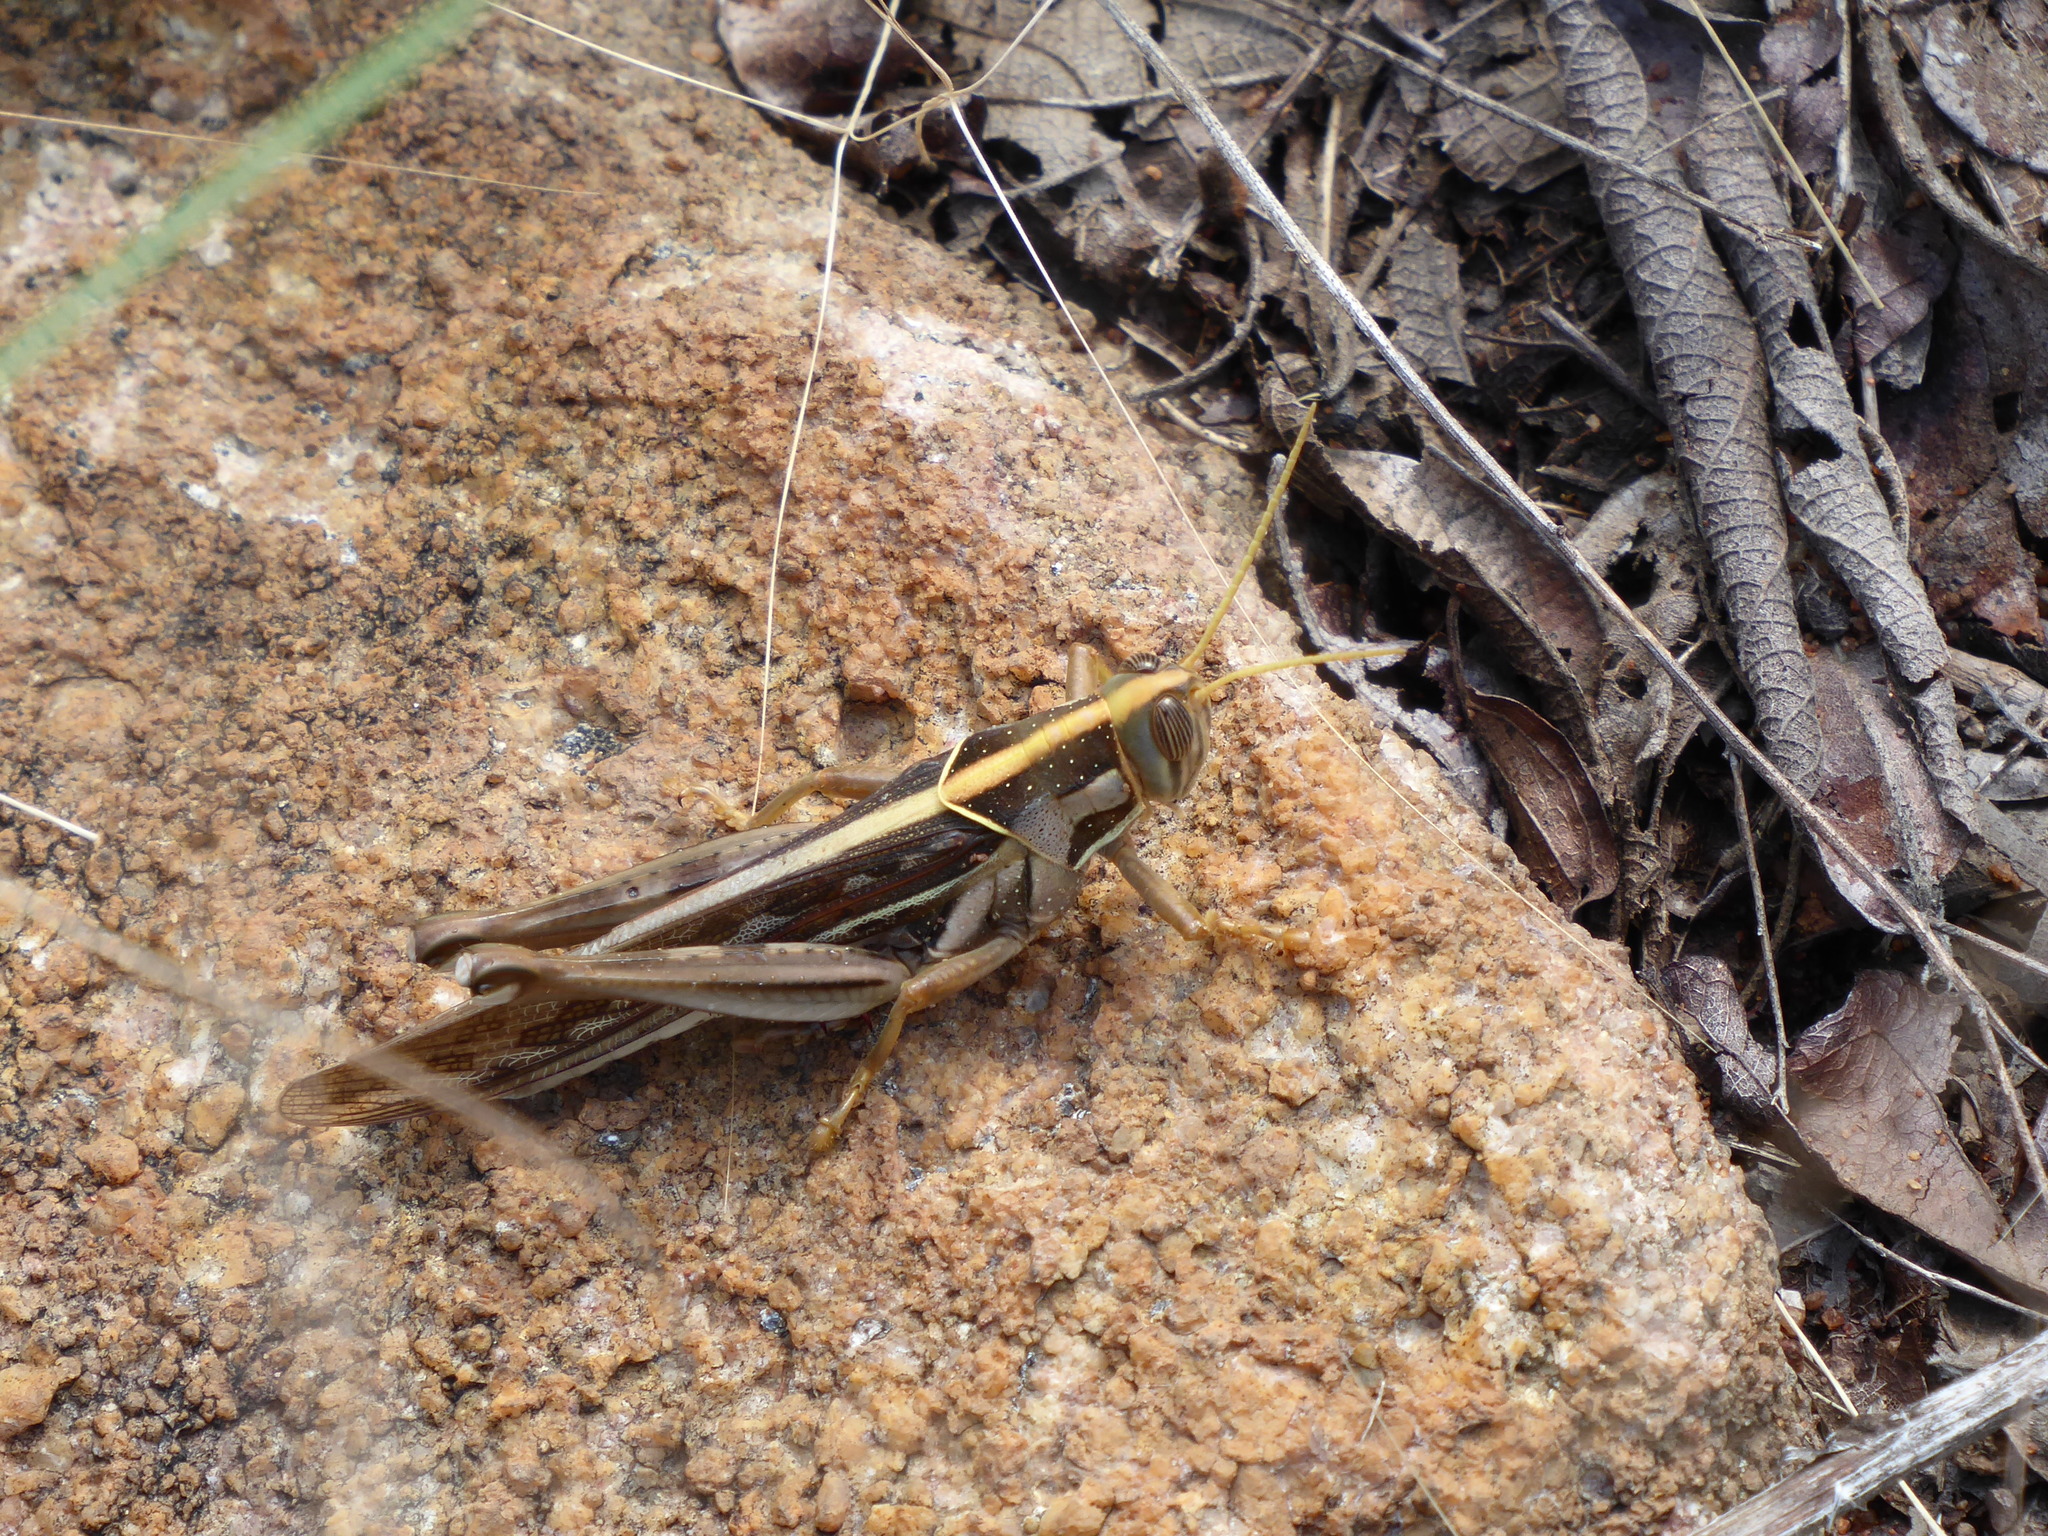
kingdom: Animalia
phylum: Arthropoda
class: Insecta
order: Orthoptera
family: Acrididae
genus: Cyrtacanthacris
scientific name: Cyrtacanthacris tatarica
